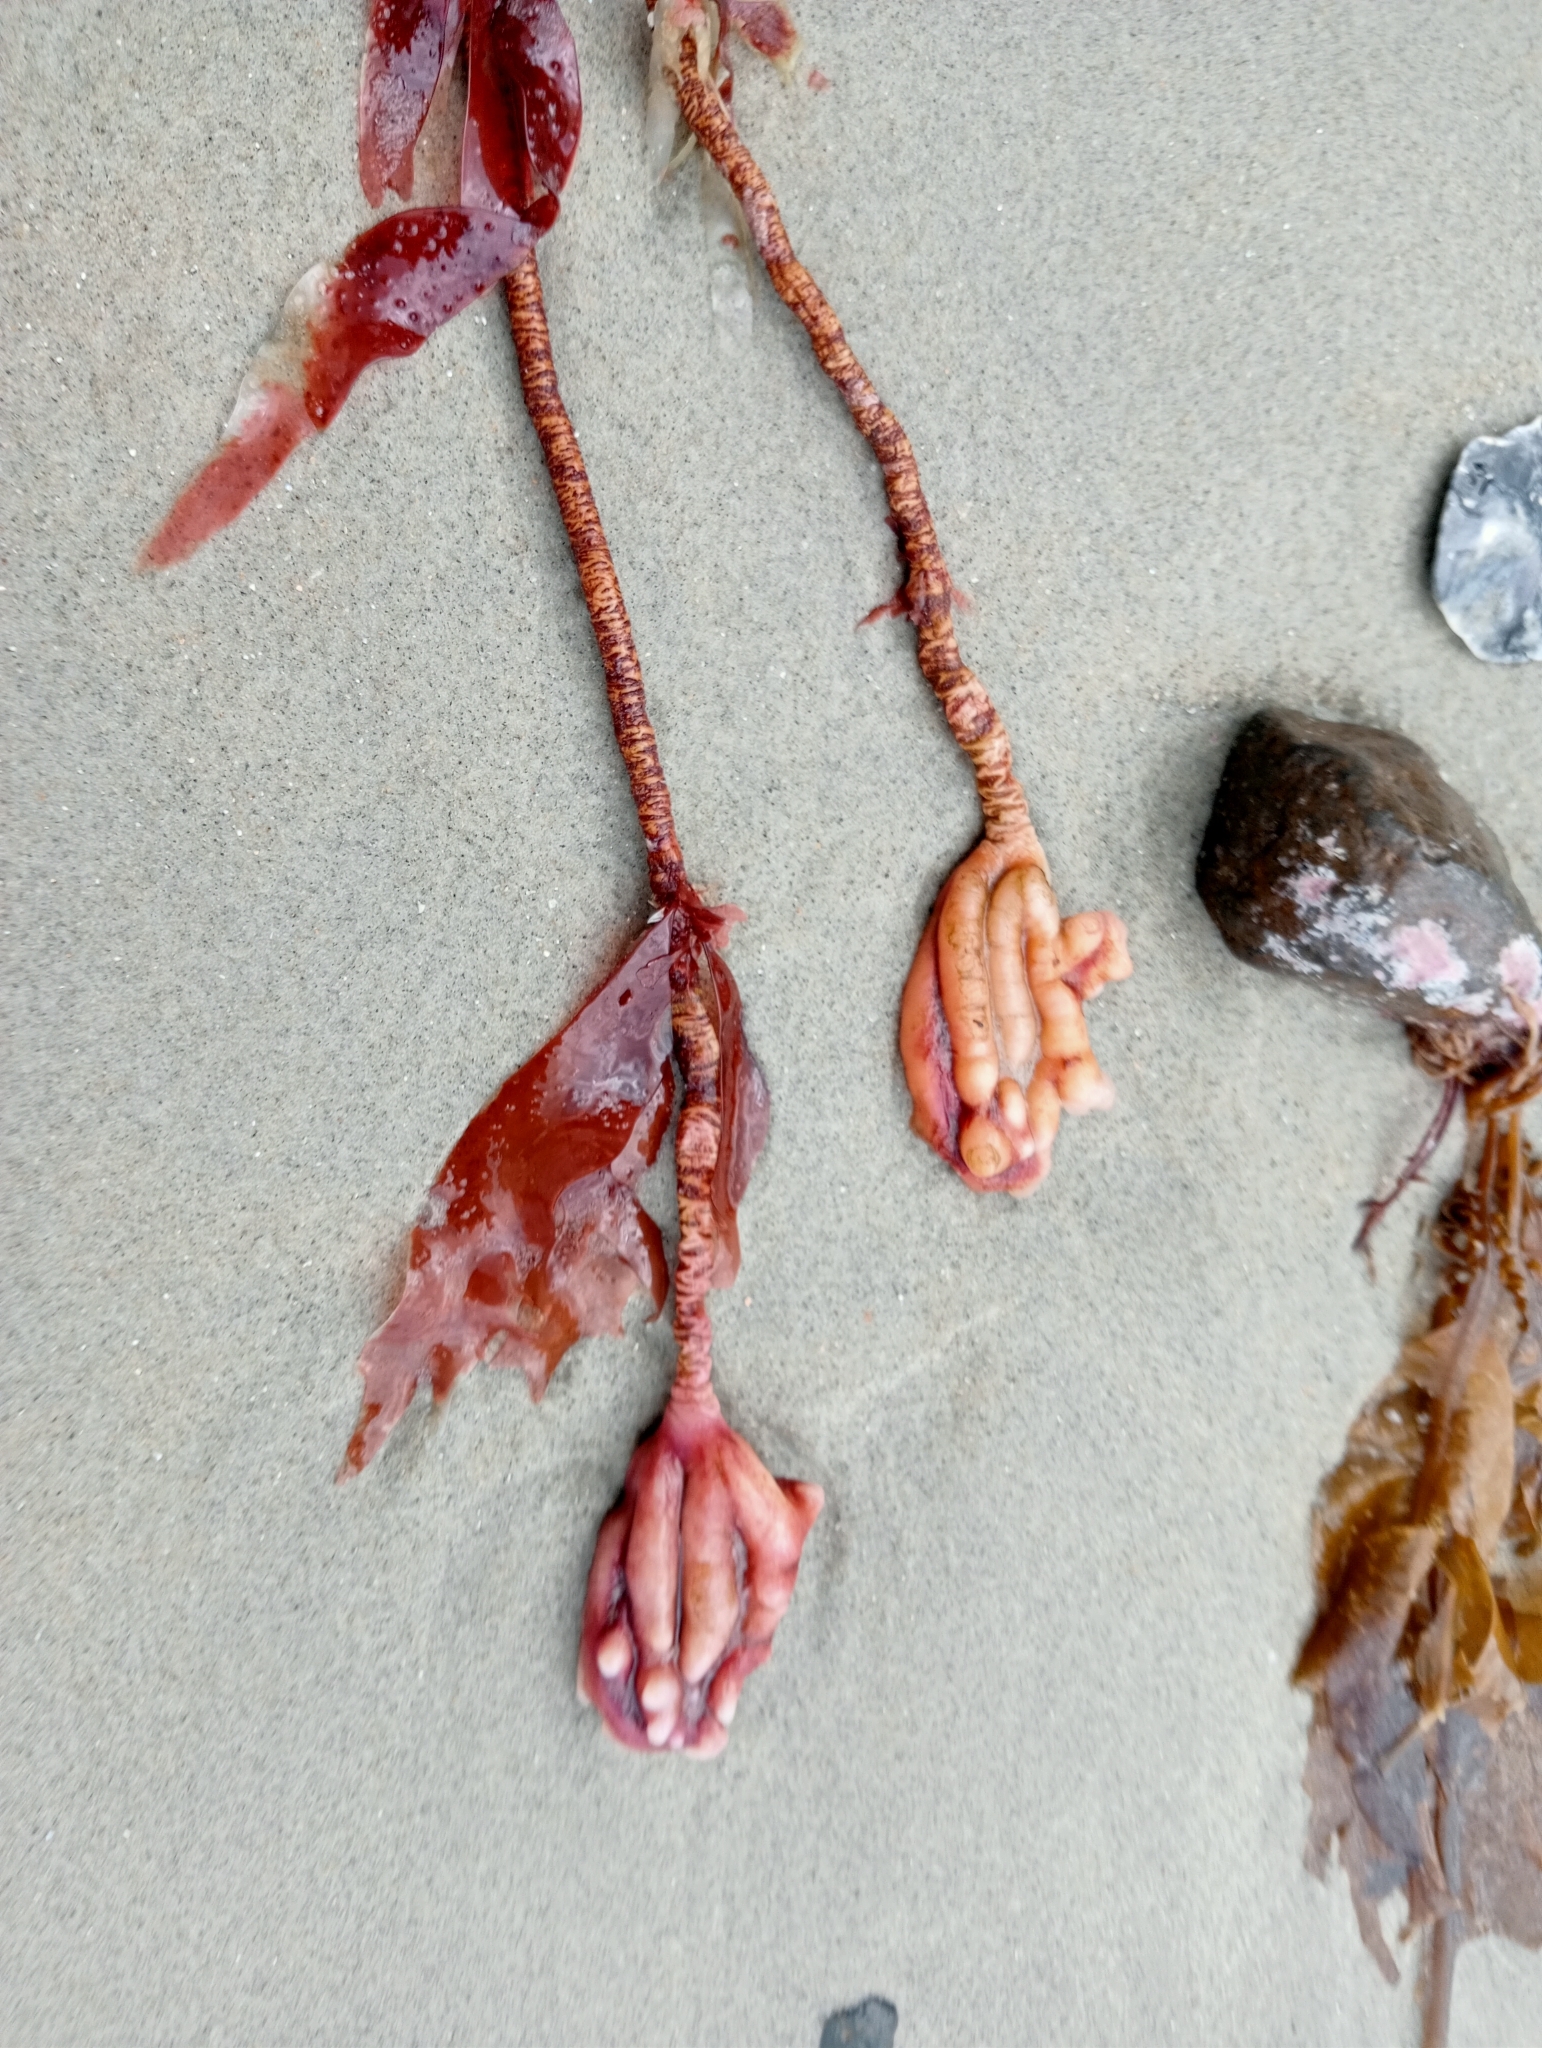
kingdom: Animalia
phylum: Chordata
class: Ascidiacea
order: Stolidobranchia
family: Pyuridae
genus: Pyura
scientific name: Pyura pachydermatina
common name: Sea tulip
